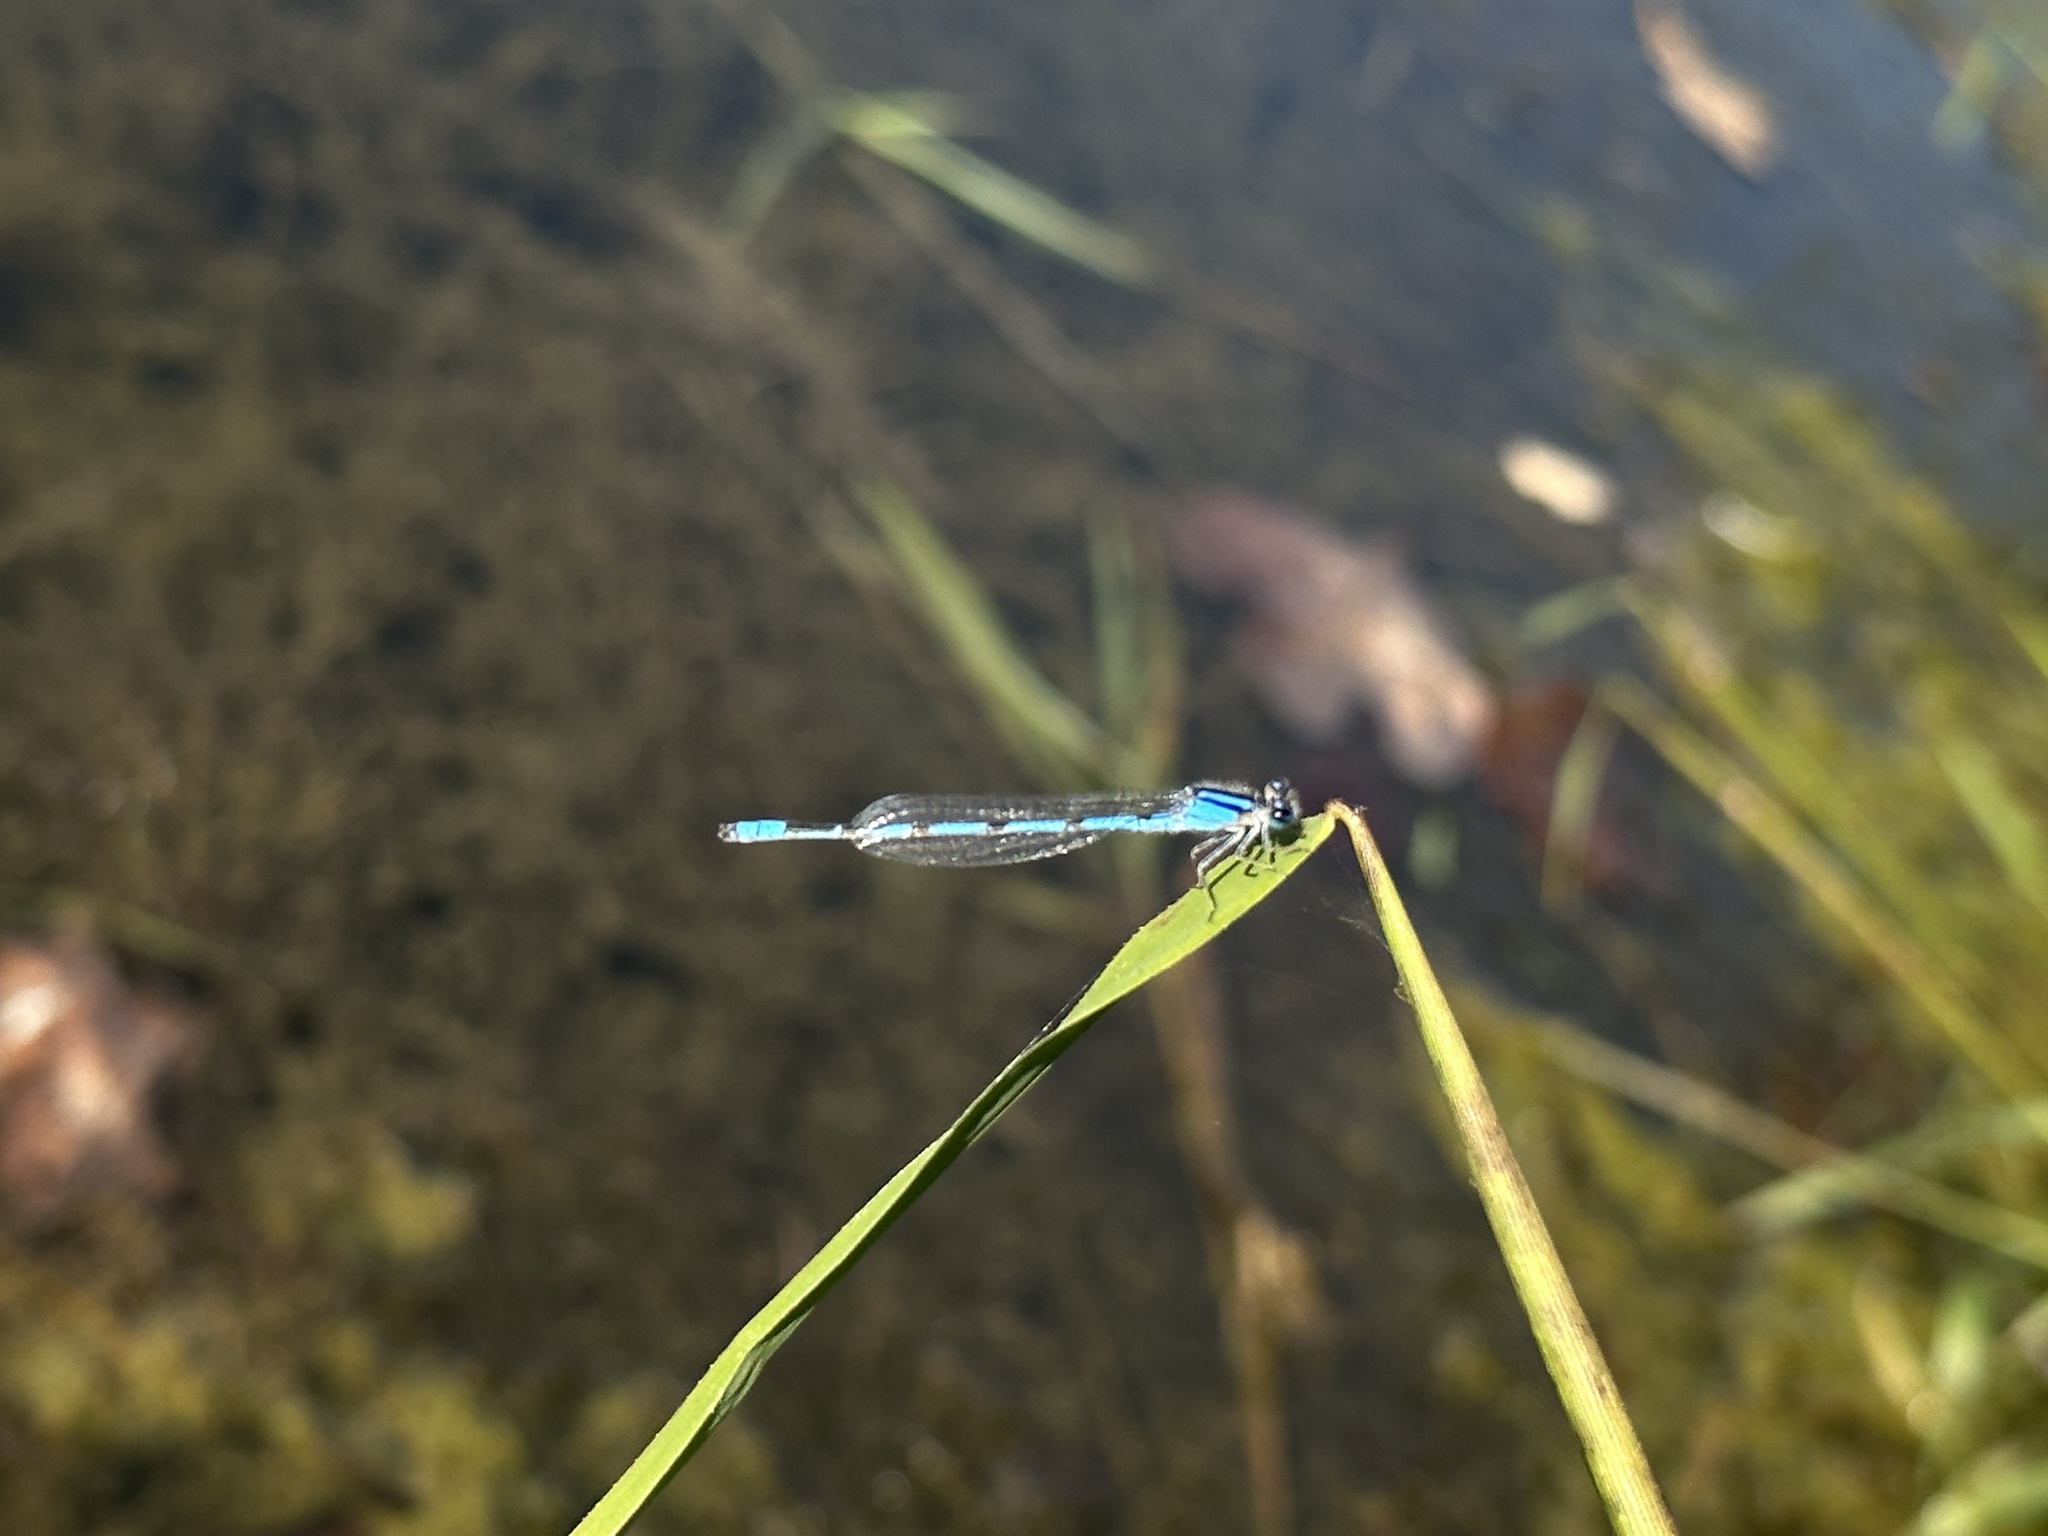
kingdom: Animalia
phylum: Arthropoda
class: Insecta
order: Odonata
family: Coenagrionidae
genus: Enallagma
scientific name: Enallagma civile
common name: Damselfly
